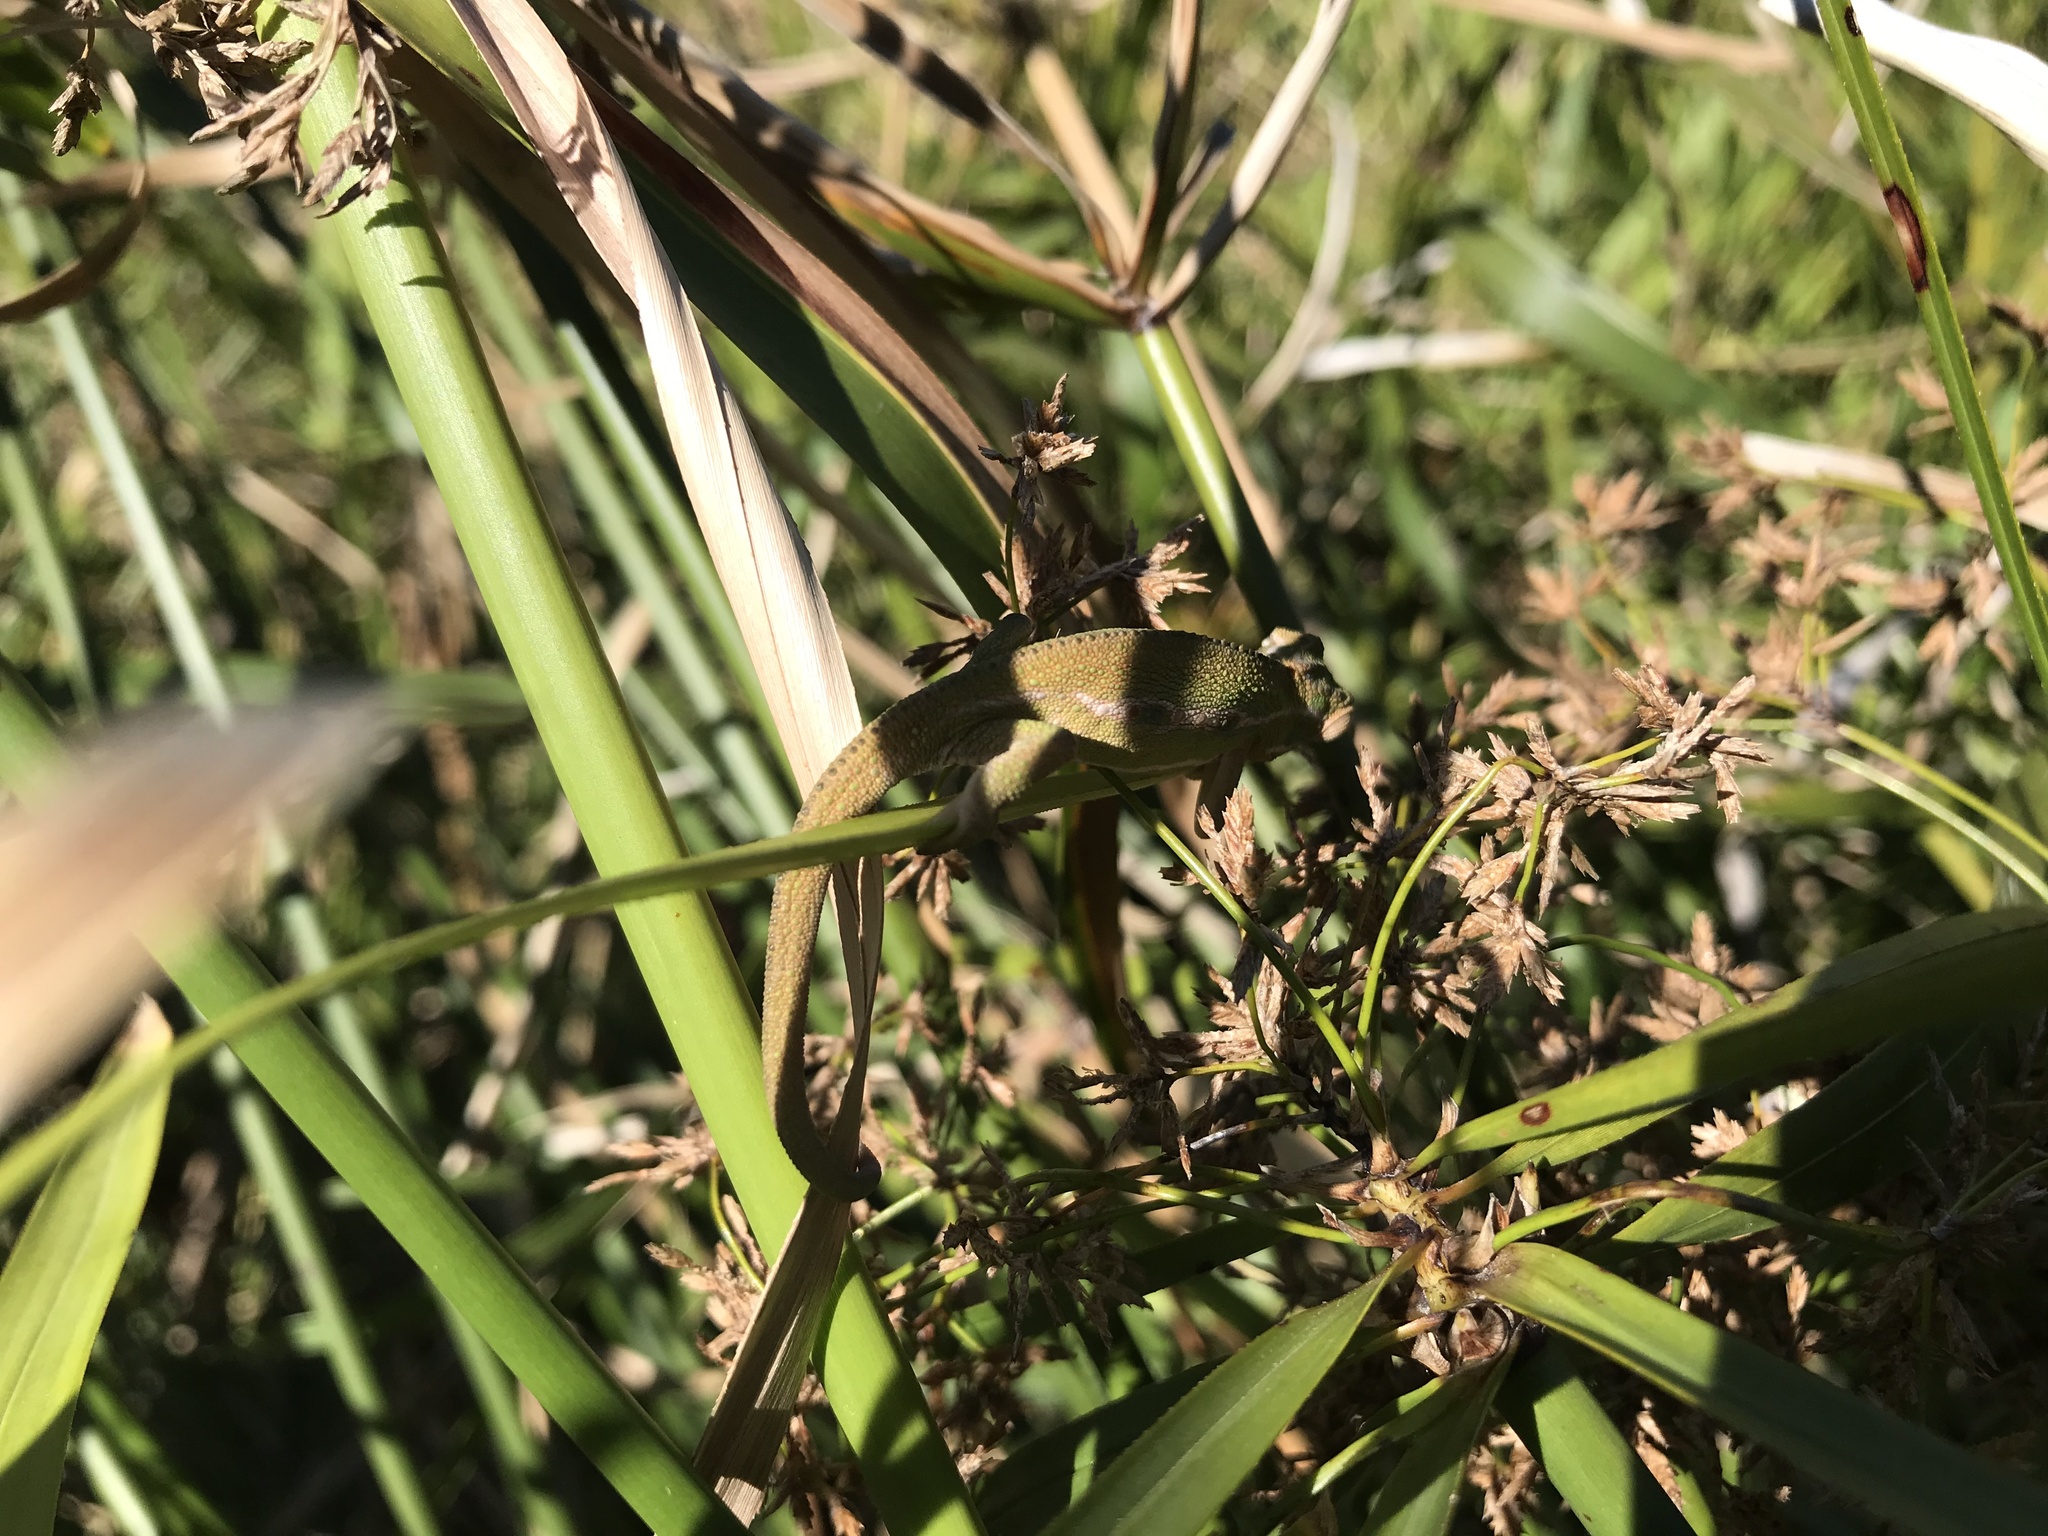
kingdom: Animalia
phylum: Chordata
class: Squamata
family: Chamaeleonidae
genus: Bradypodion
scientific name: Bradypodion pumilum
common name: Cape dwarf chameleon
